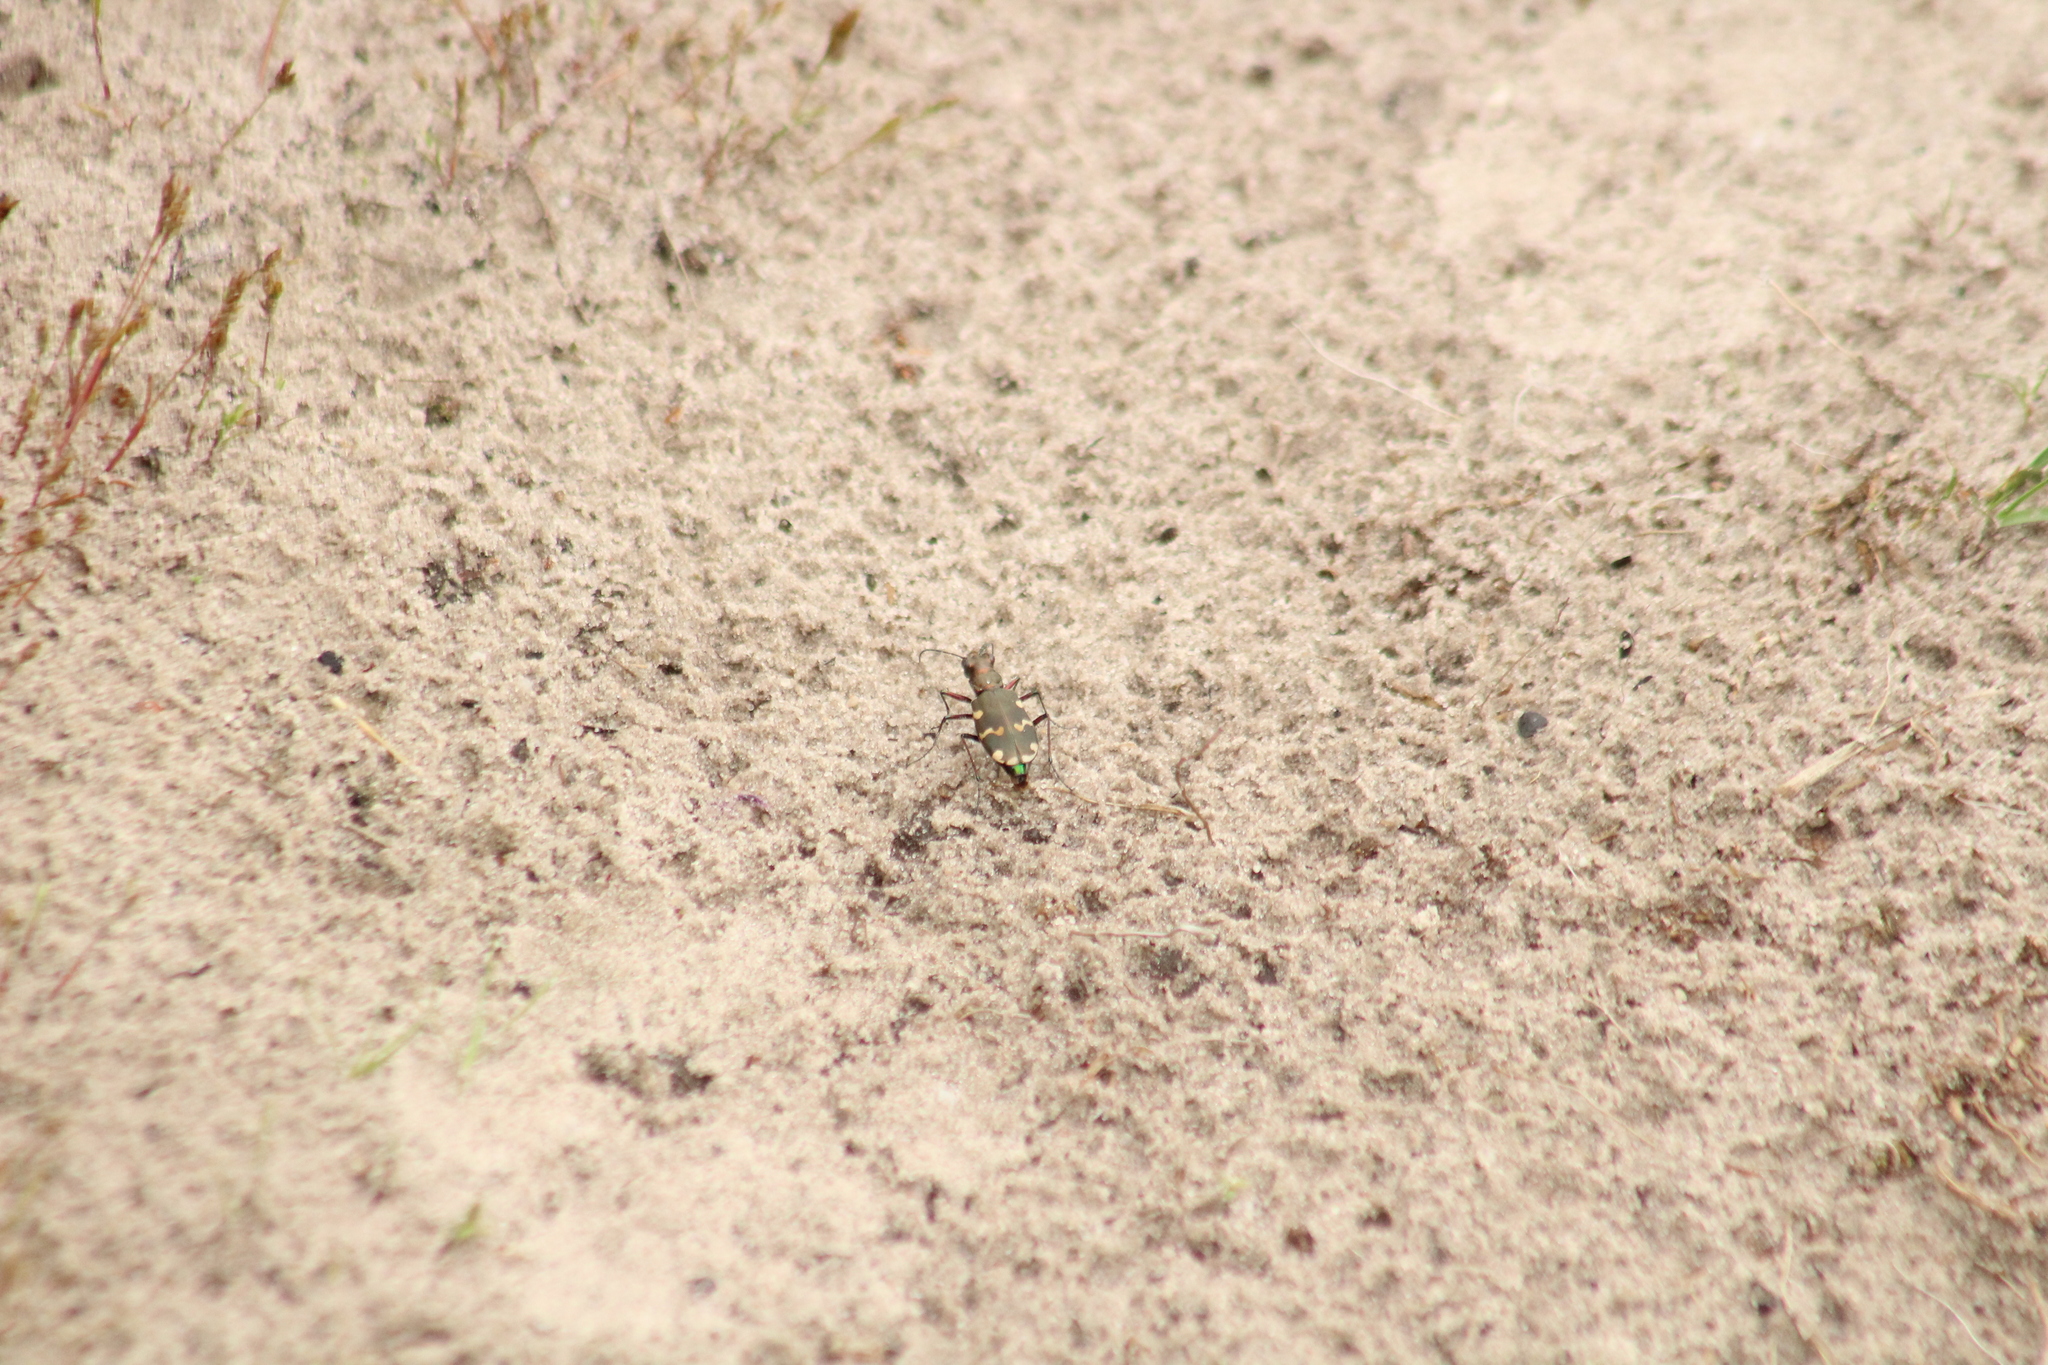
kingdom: Animalia
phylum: Arthropoda
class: Insecta
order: Coleoptera
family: Carabidae
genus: Cicindela
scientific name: Cicindela hybrida
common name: Northern dune tiger beetle
